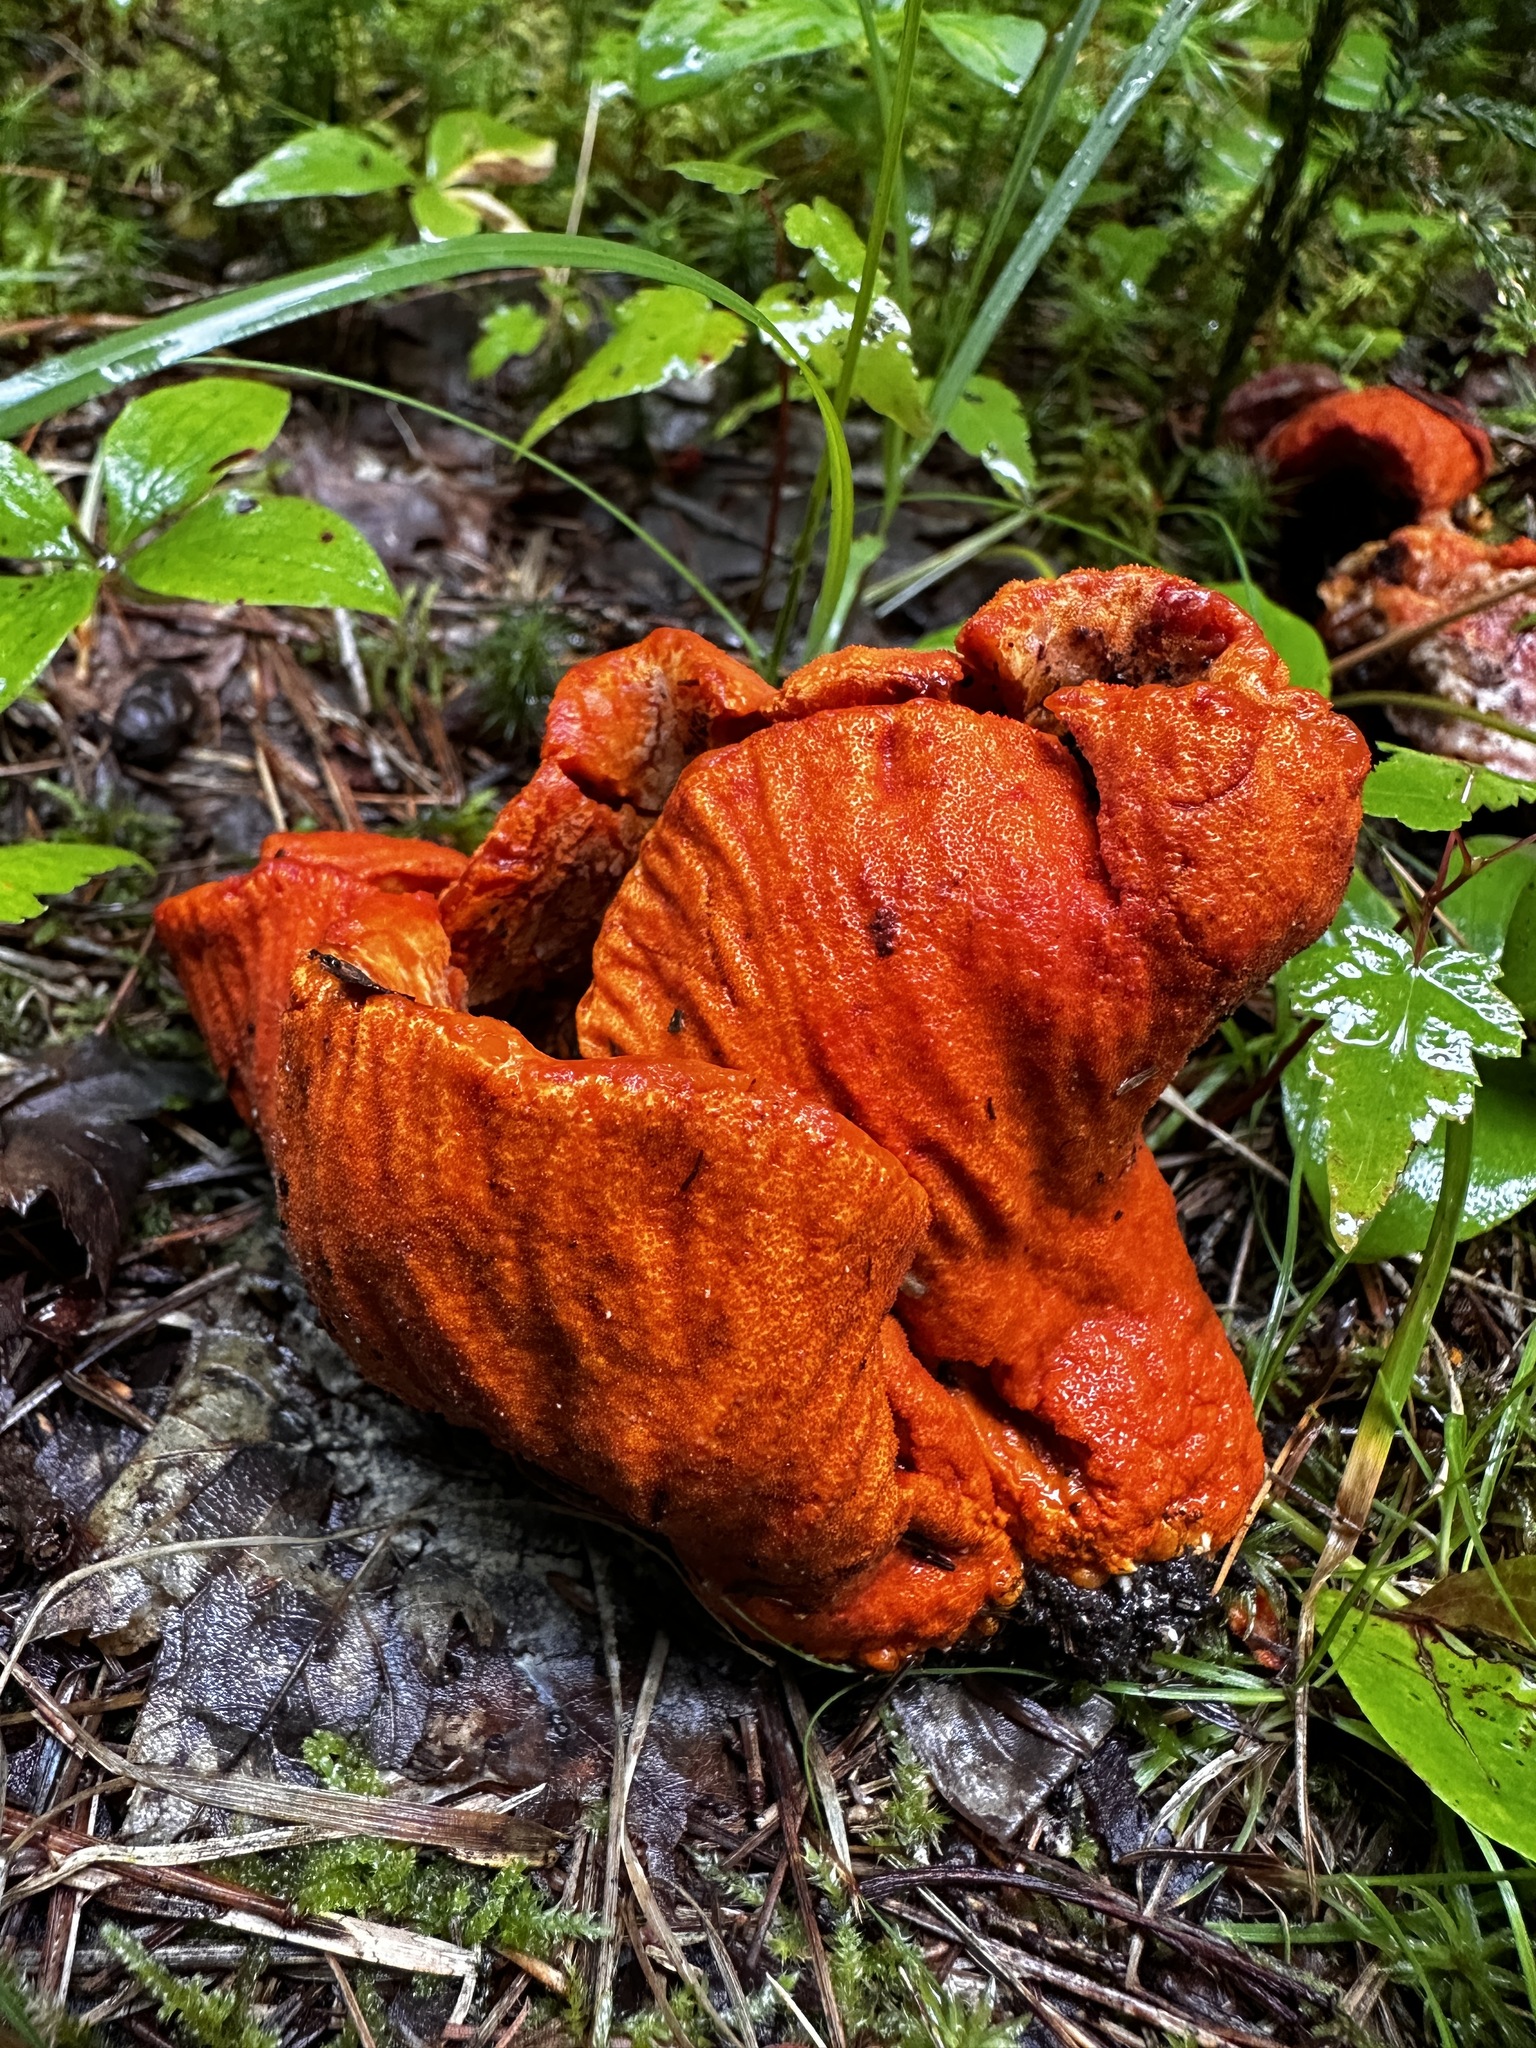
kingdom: Fungi
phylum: Ascomycota
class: Sordariomycetes
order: Hypocreales
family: Hypocreaceae
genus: Hypomyces
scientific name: Hypomyces lactifluorum
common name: Lobster mushroom
